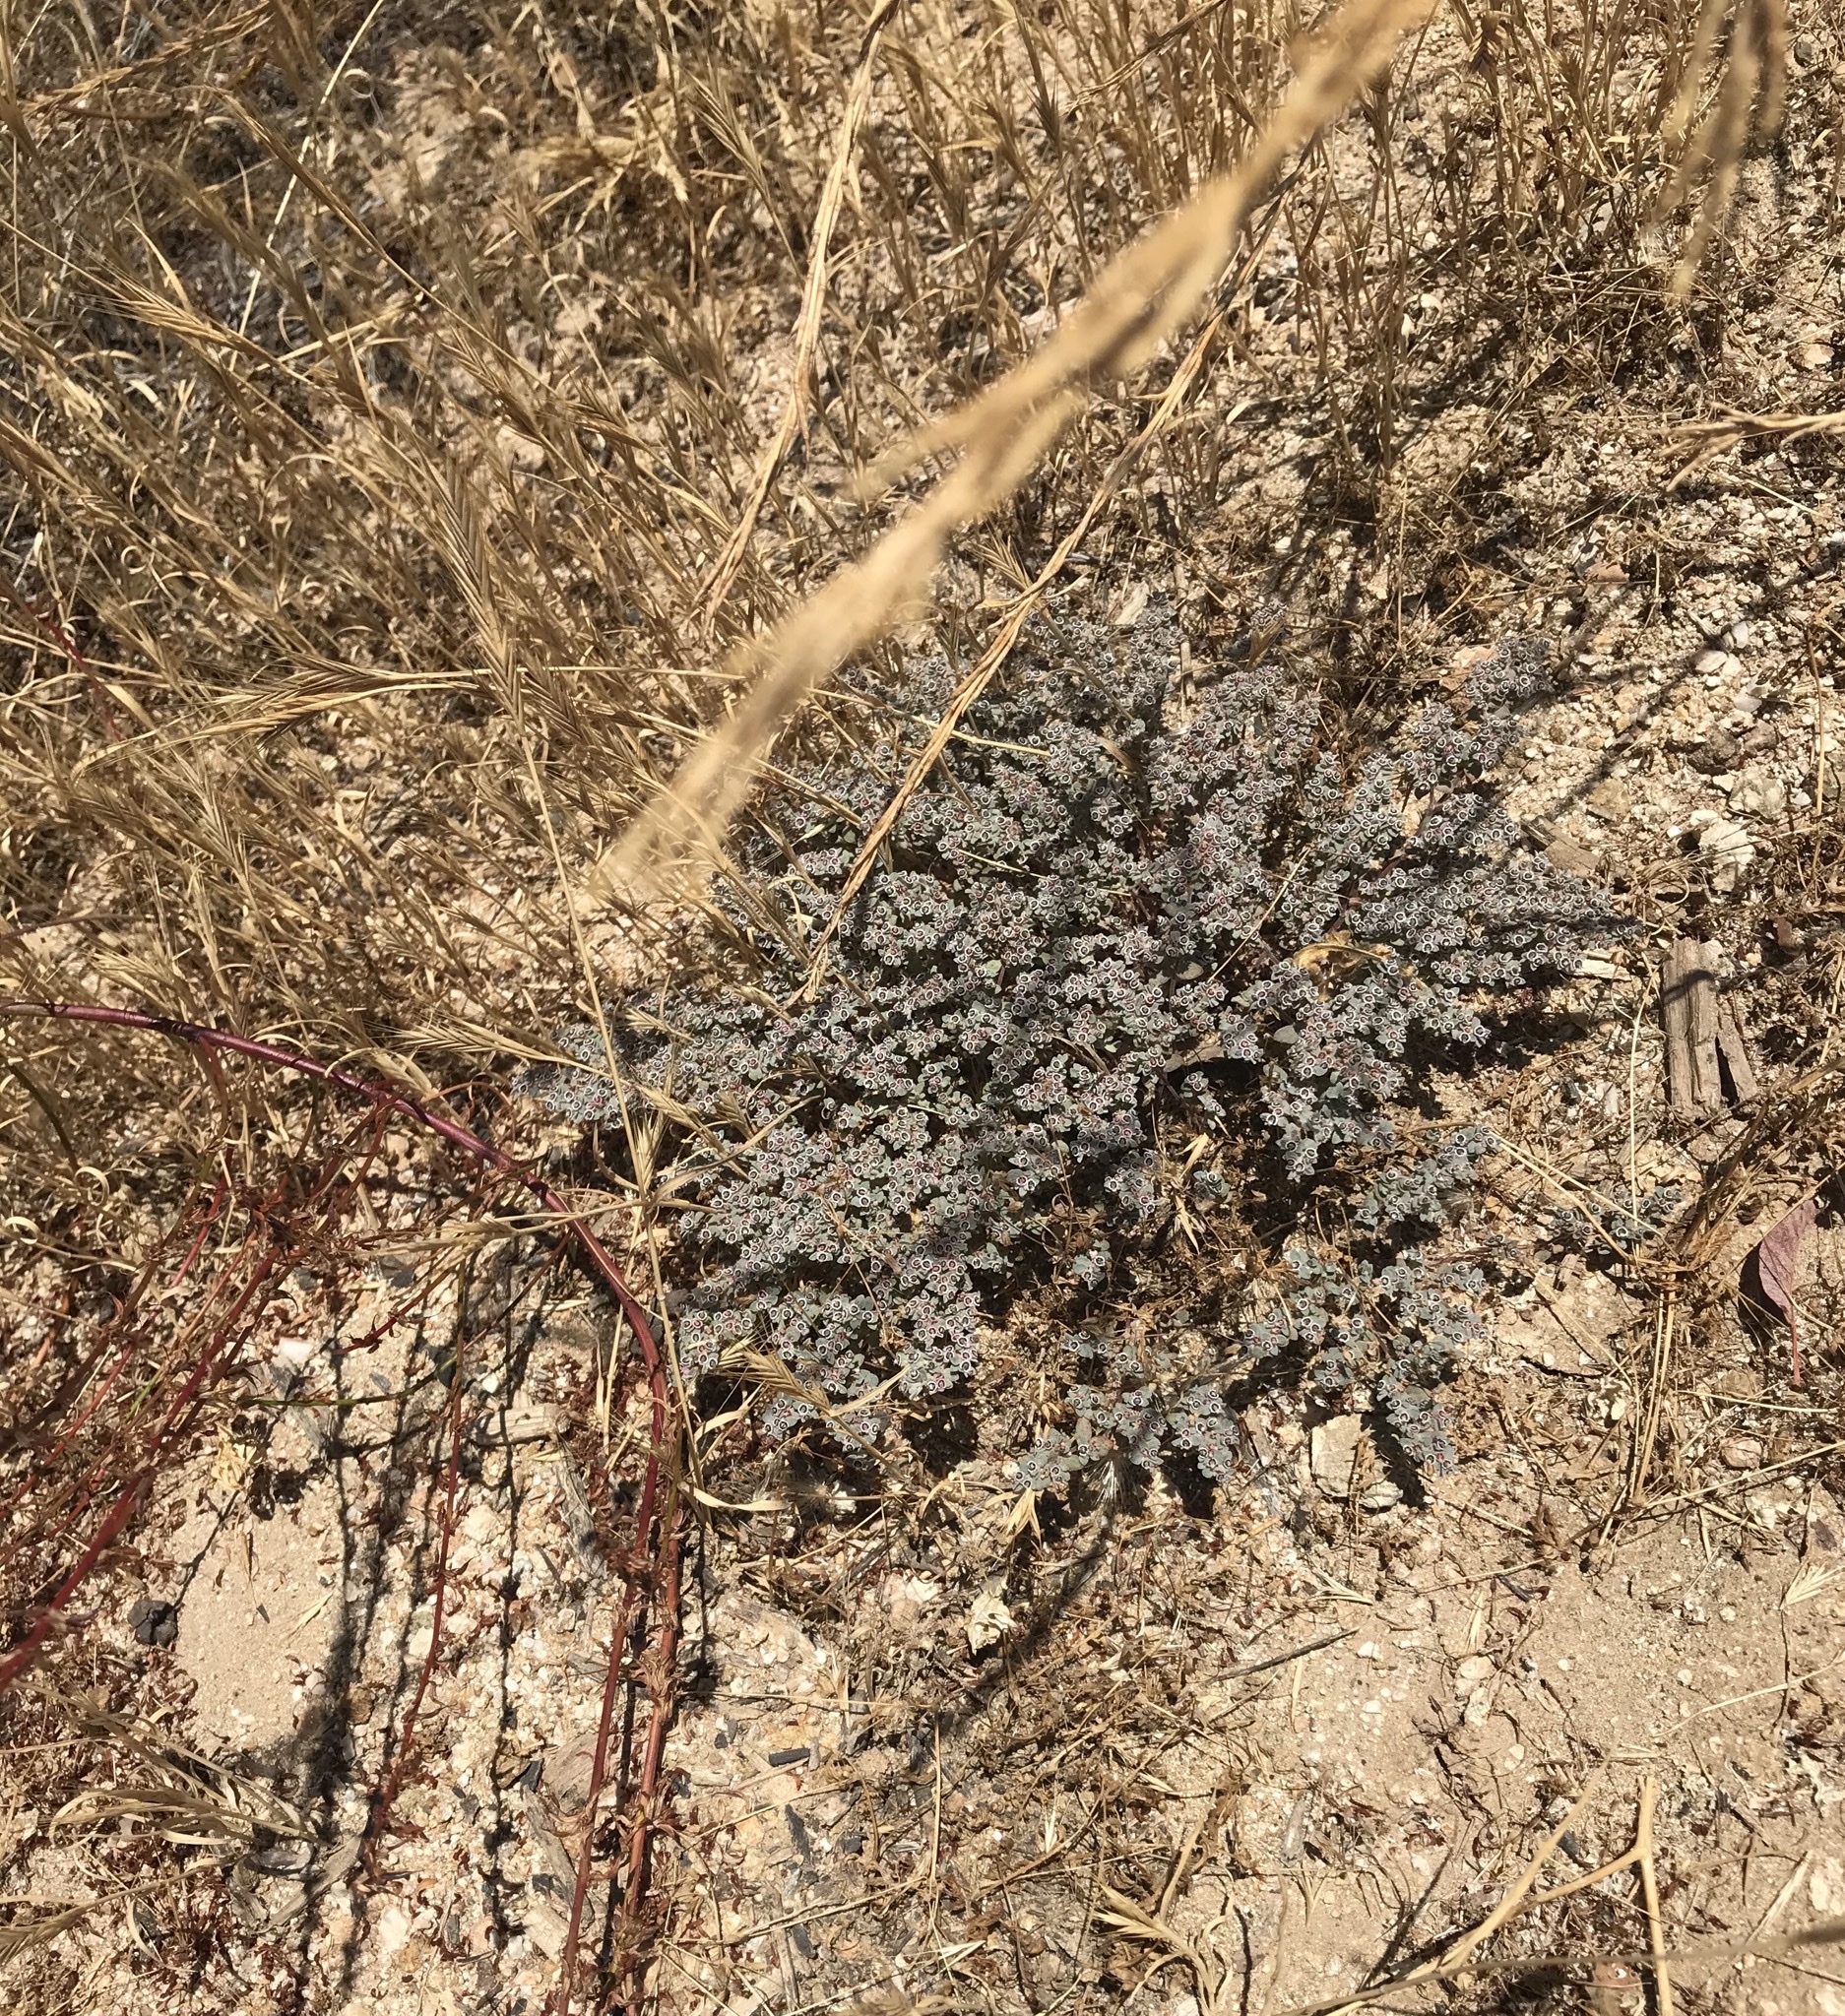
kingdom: Plantae
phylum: Tracheophyta
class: Magnoliopsida
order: Malpighiales
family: Euphorbiaceae
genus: Euphorbia
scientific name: Euphorbia melanadenia
